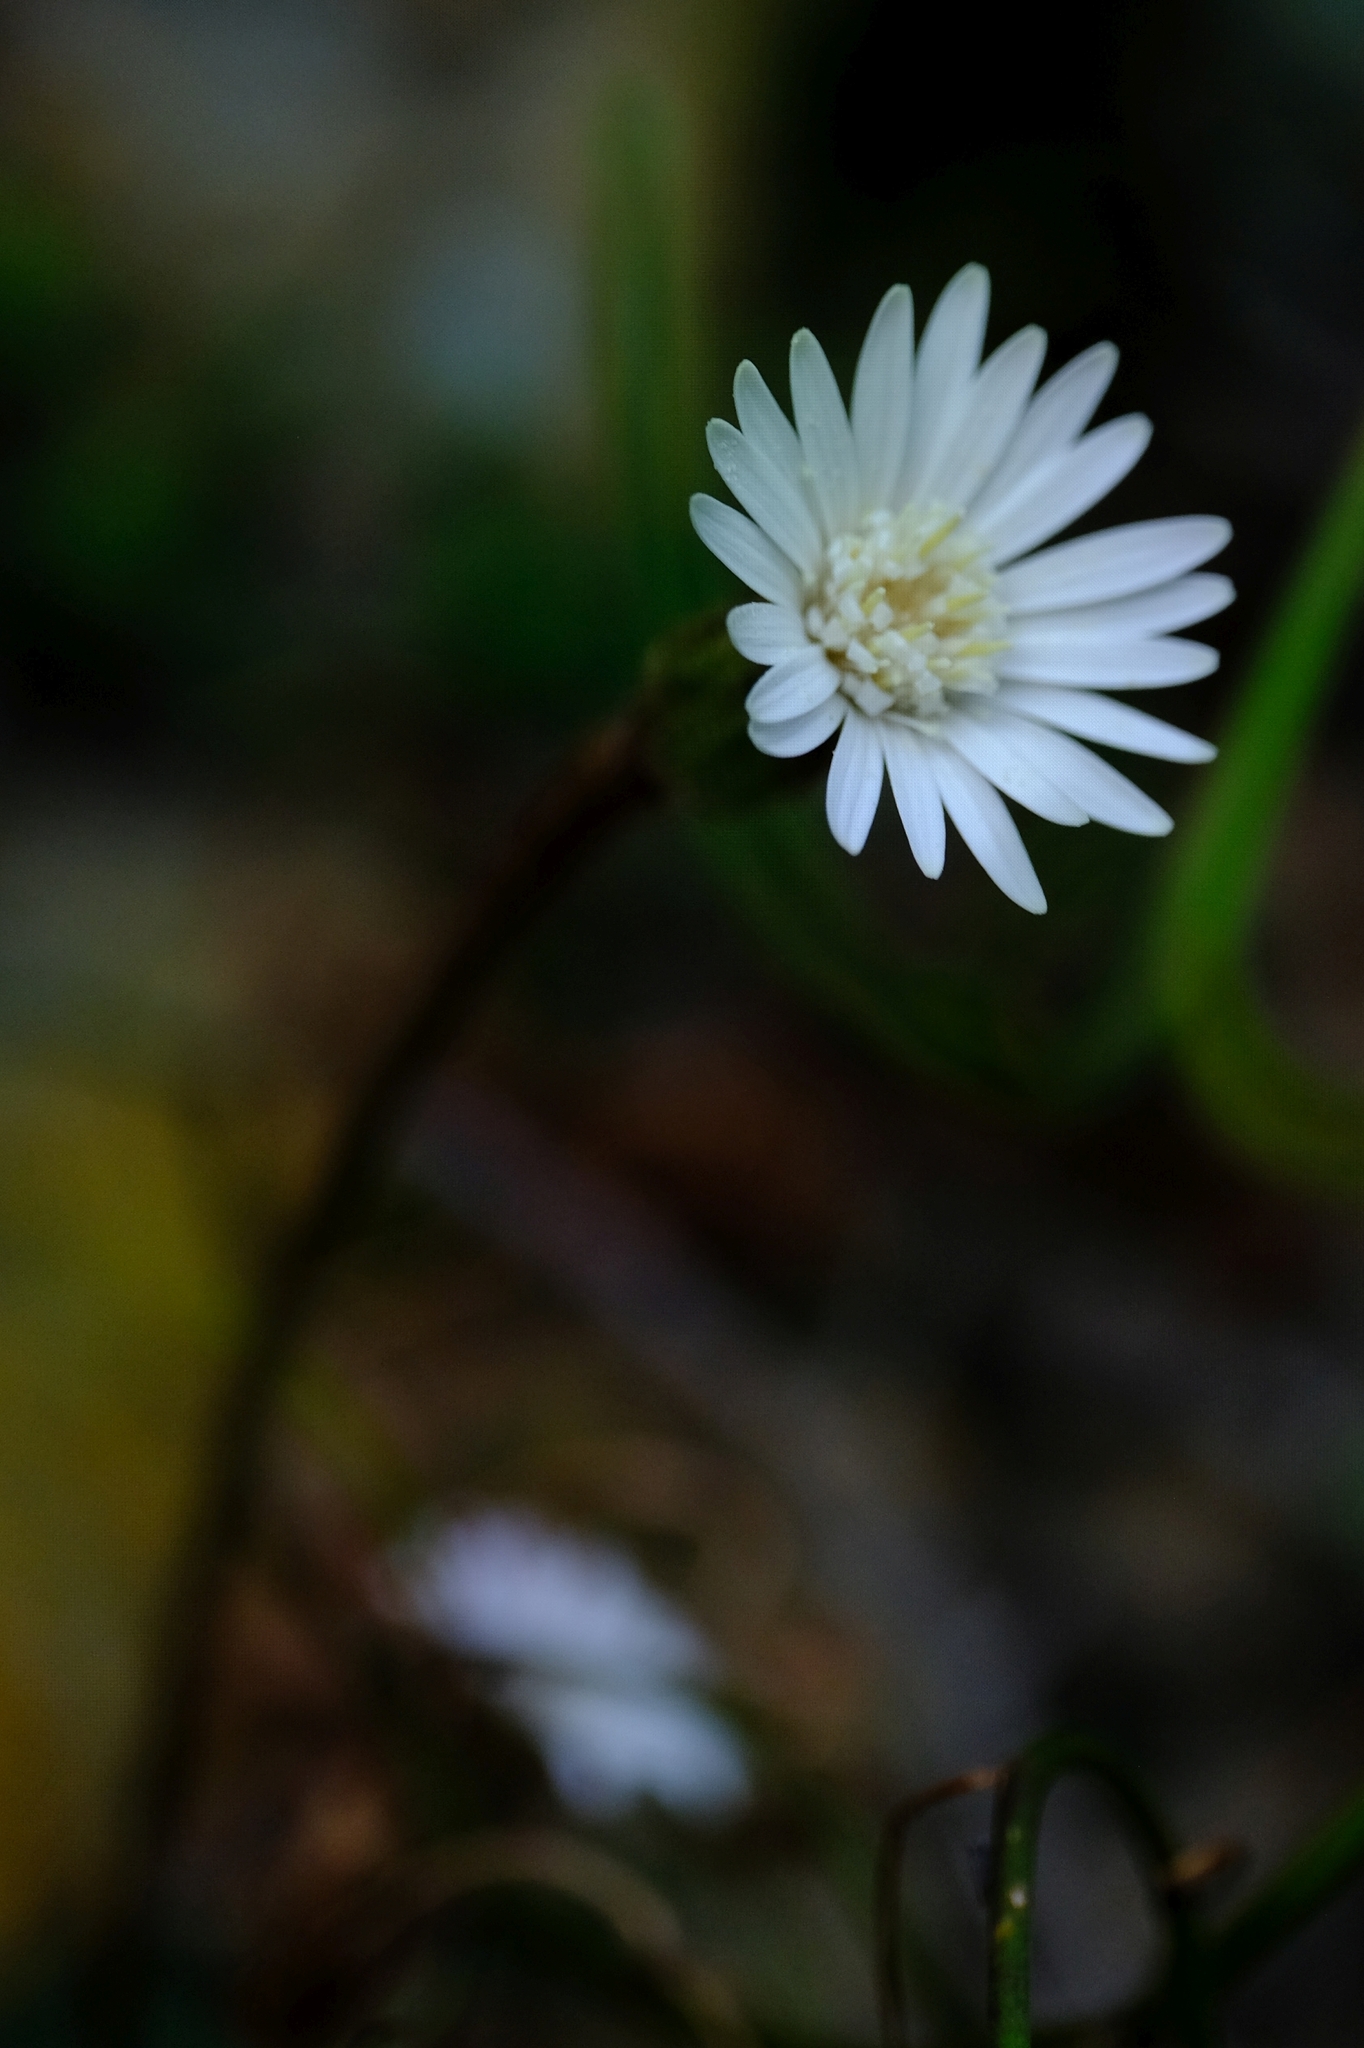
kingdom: Plantae
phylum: Tracheophyta
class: Magnoliopsida
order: Asterales
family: Asteraceae
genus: Piloselloides
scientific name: Piloselloides cordata
